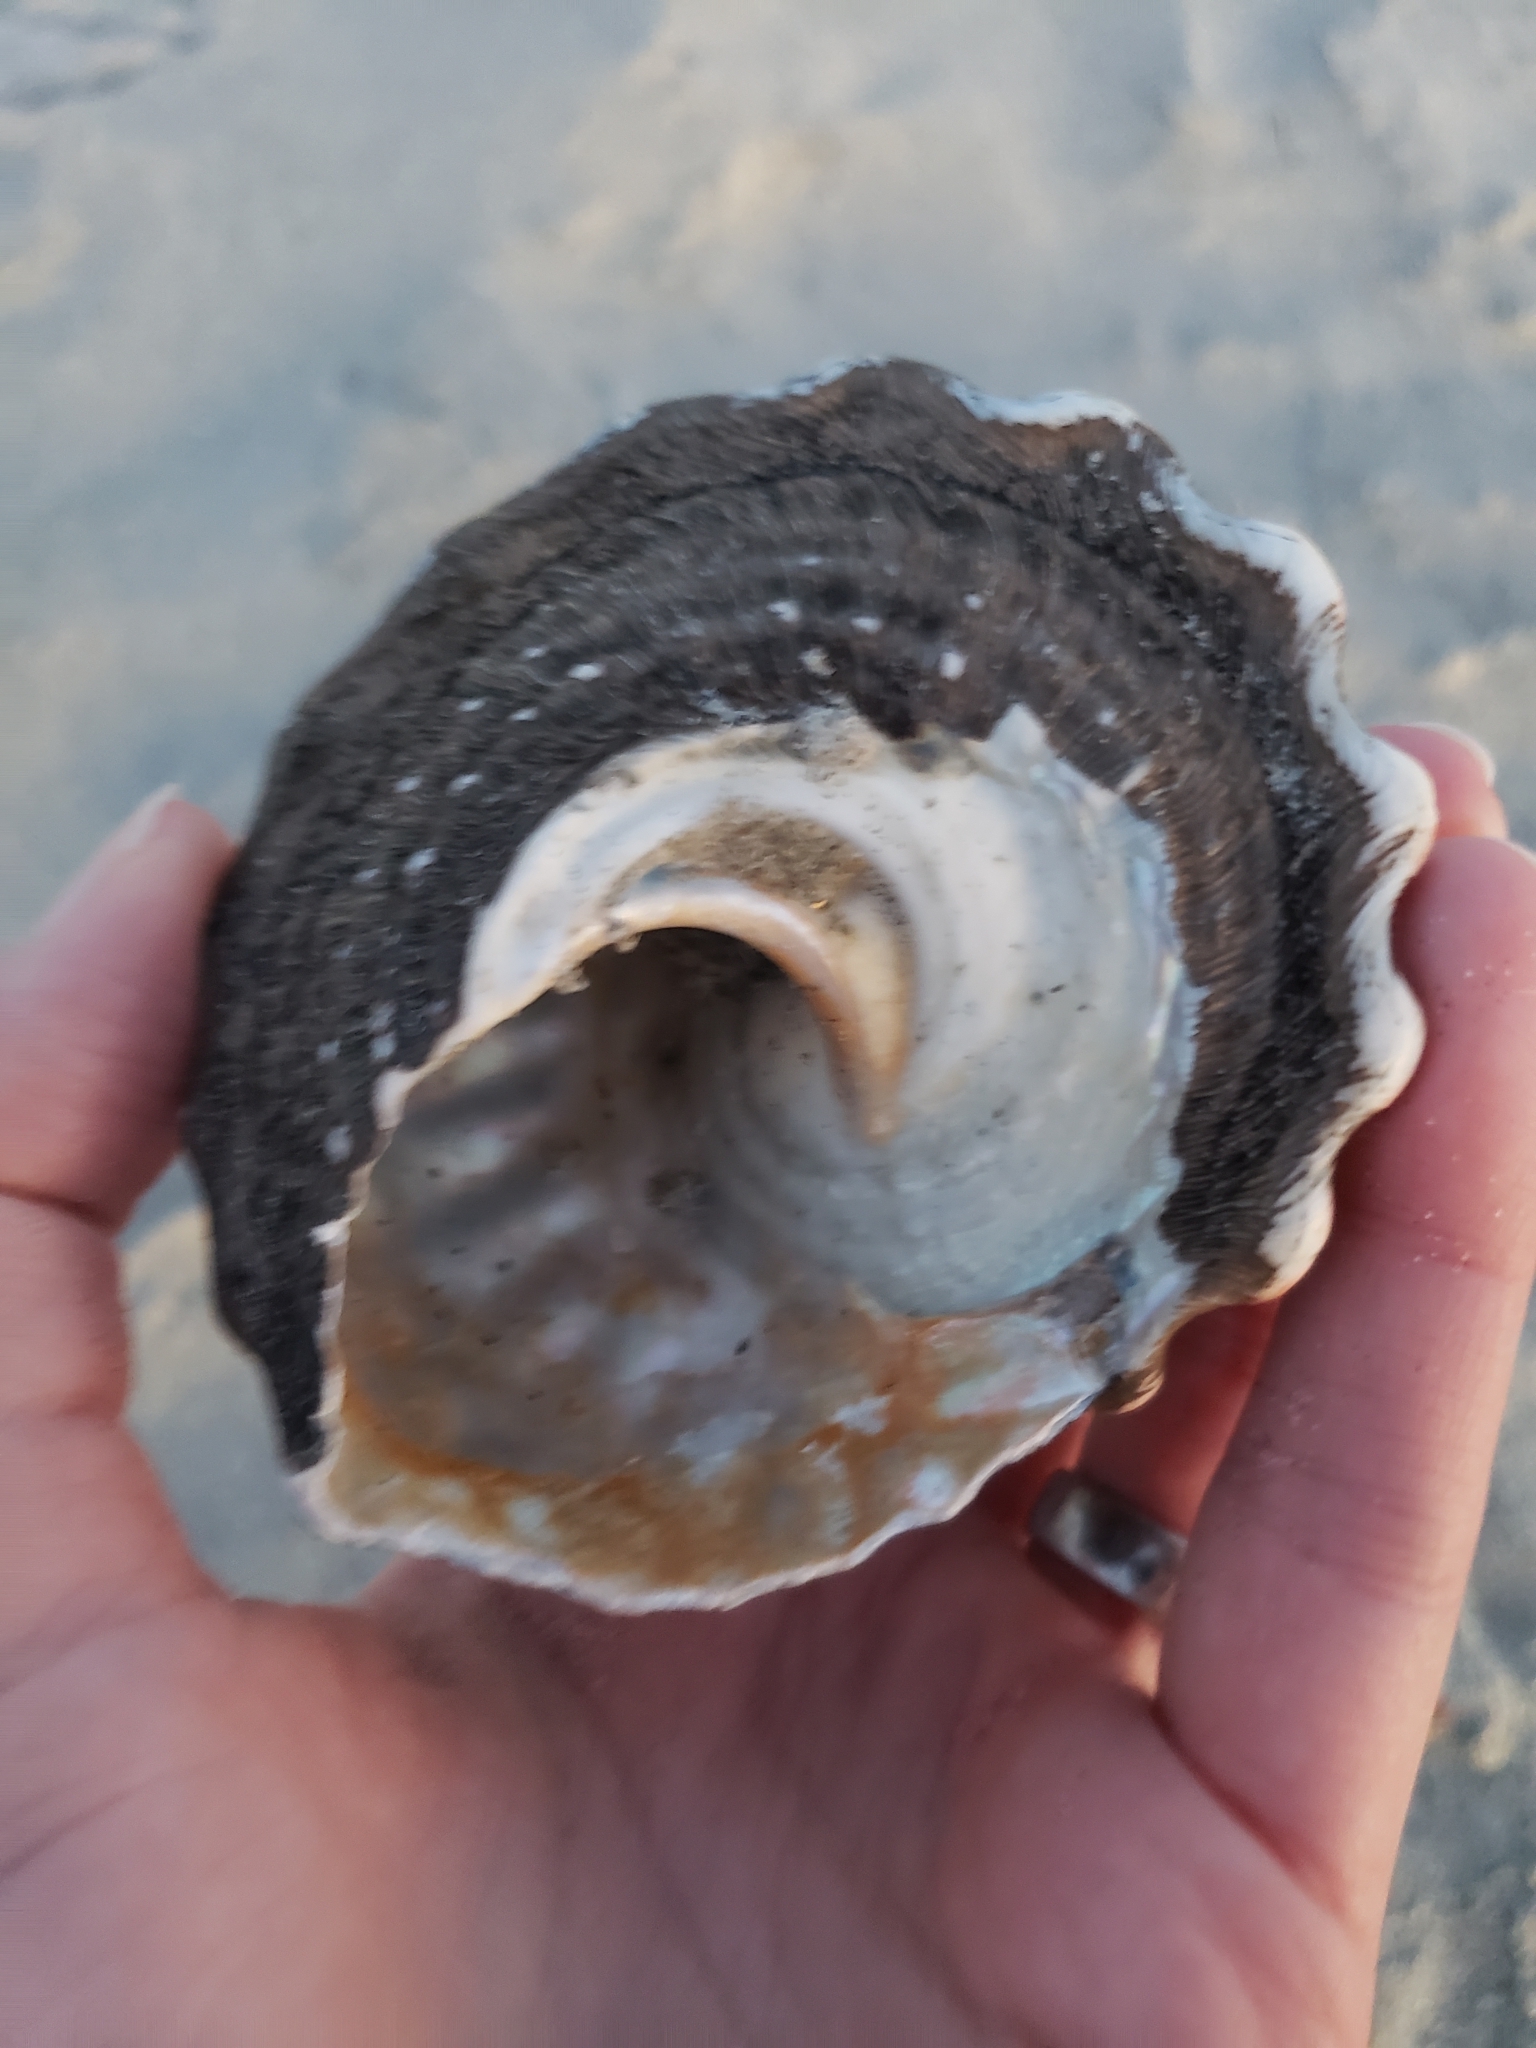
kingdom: Animalia
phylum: Mollusca
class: Gastropoda
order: Trochida
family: Turbinidae
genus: Megastraea
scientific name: Megastraea undosa
